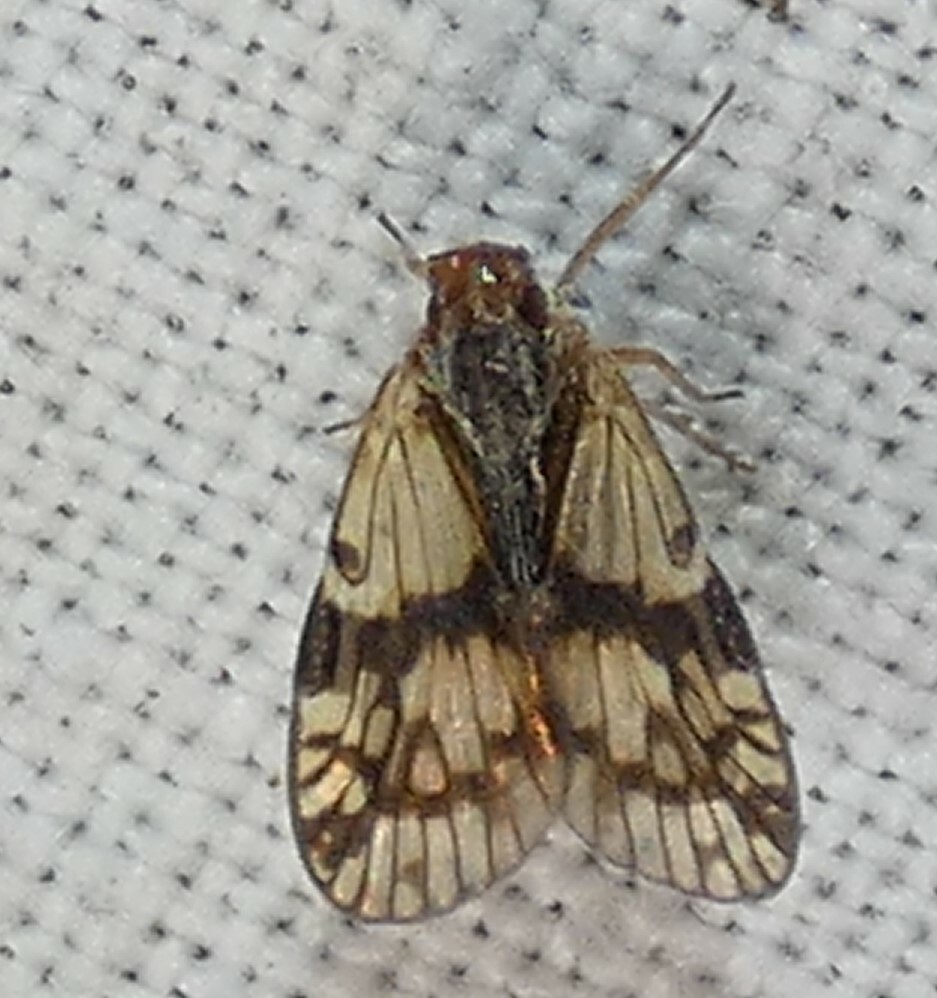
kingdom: Animalia
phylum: Arthropoda
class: Insecta
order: Hemiptera
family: Cixiidae
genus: Bothriocera
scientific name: Bothriocera datuna
